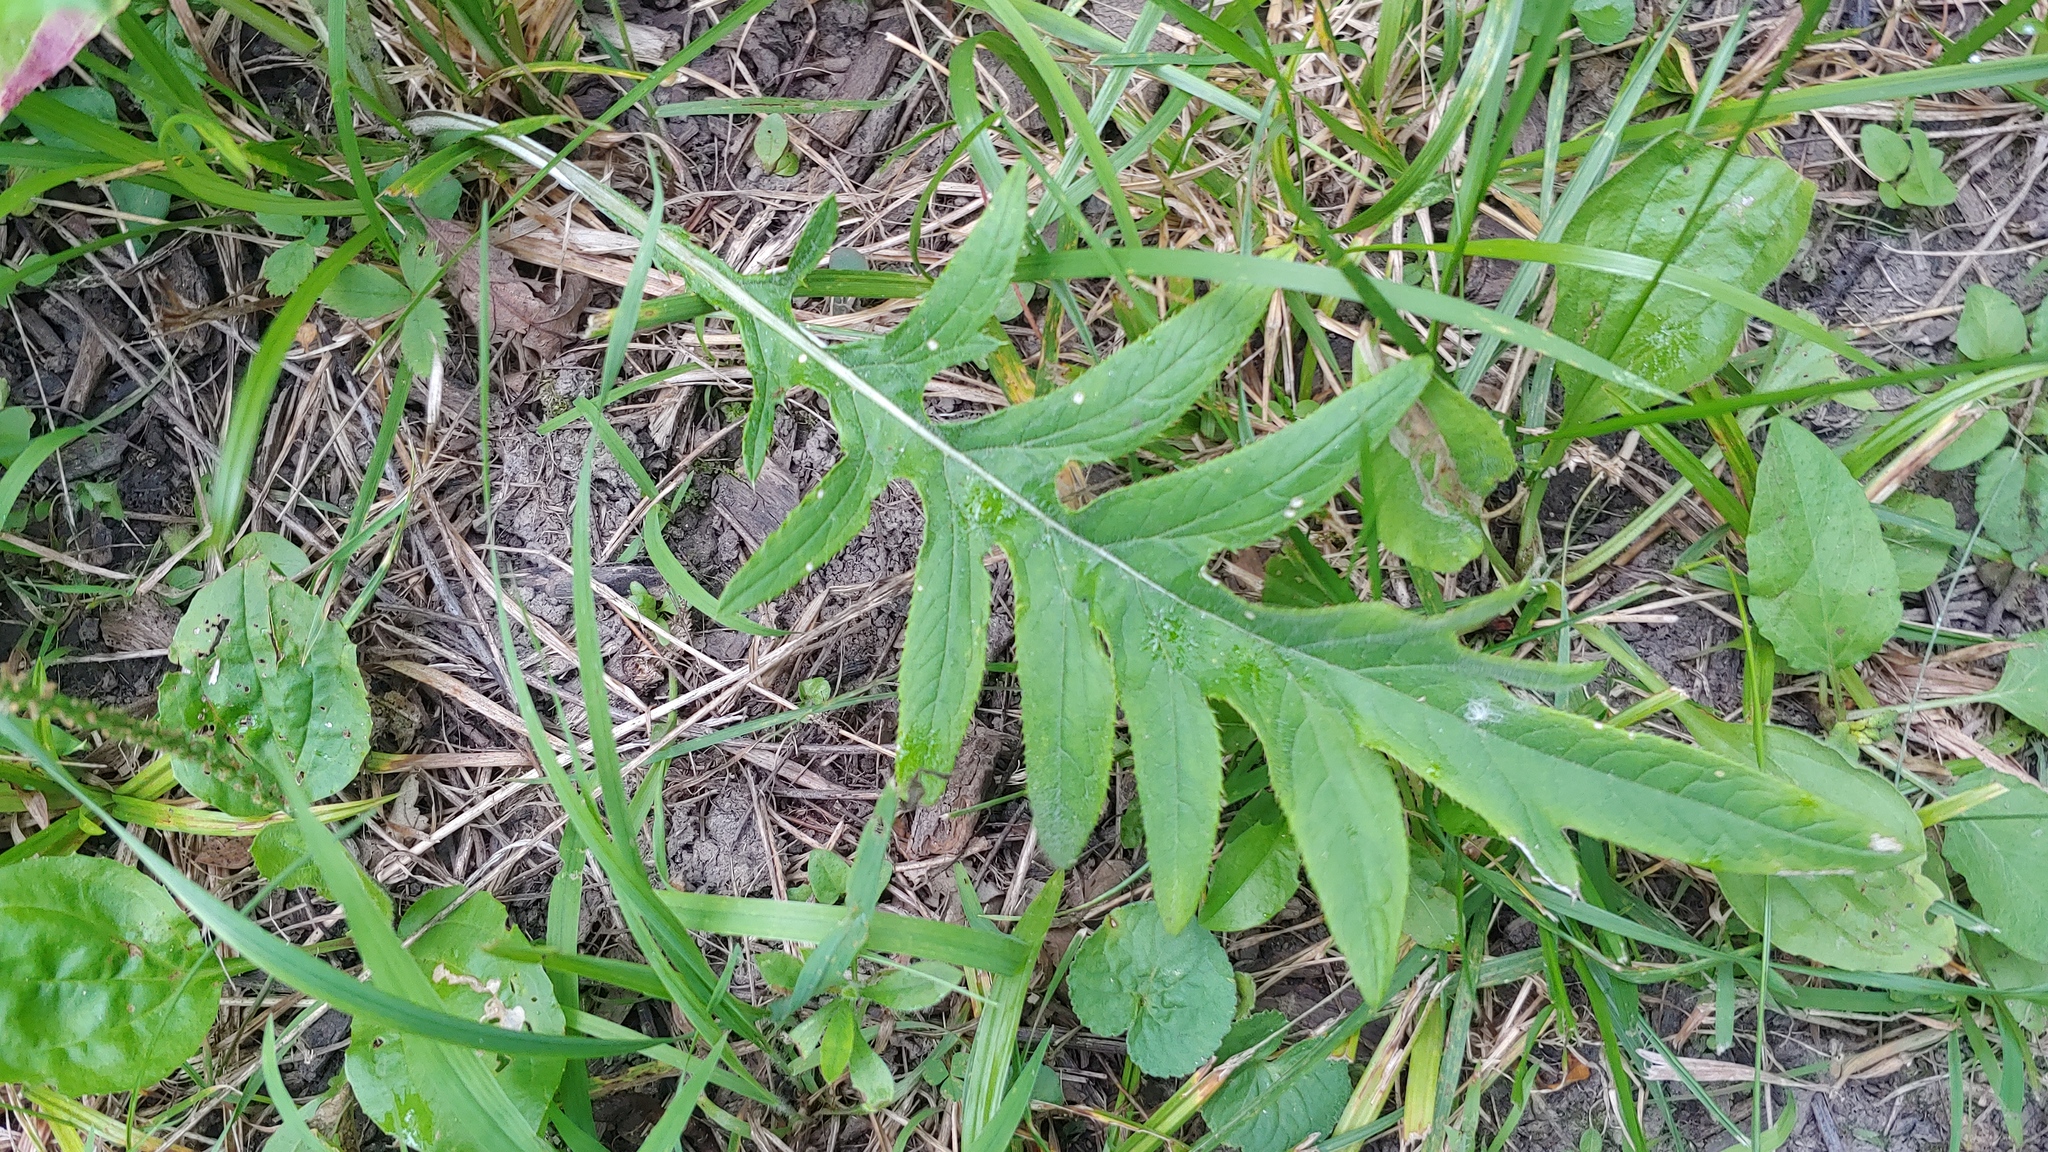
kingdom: Plantae
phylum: Tracheophyta
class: Magnoliopsida
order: Asterales
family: Asteraceae
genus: Cirsium
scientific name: Cirsium discolor
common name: Field thistle
